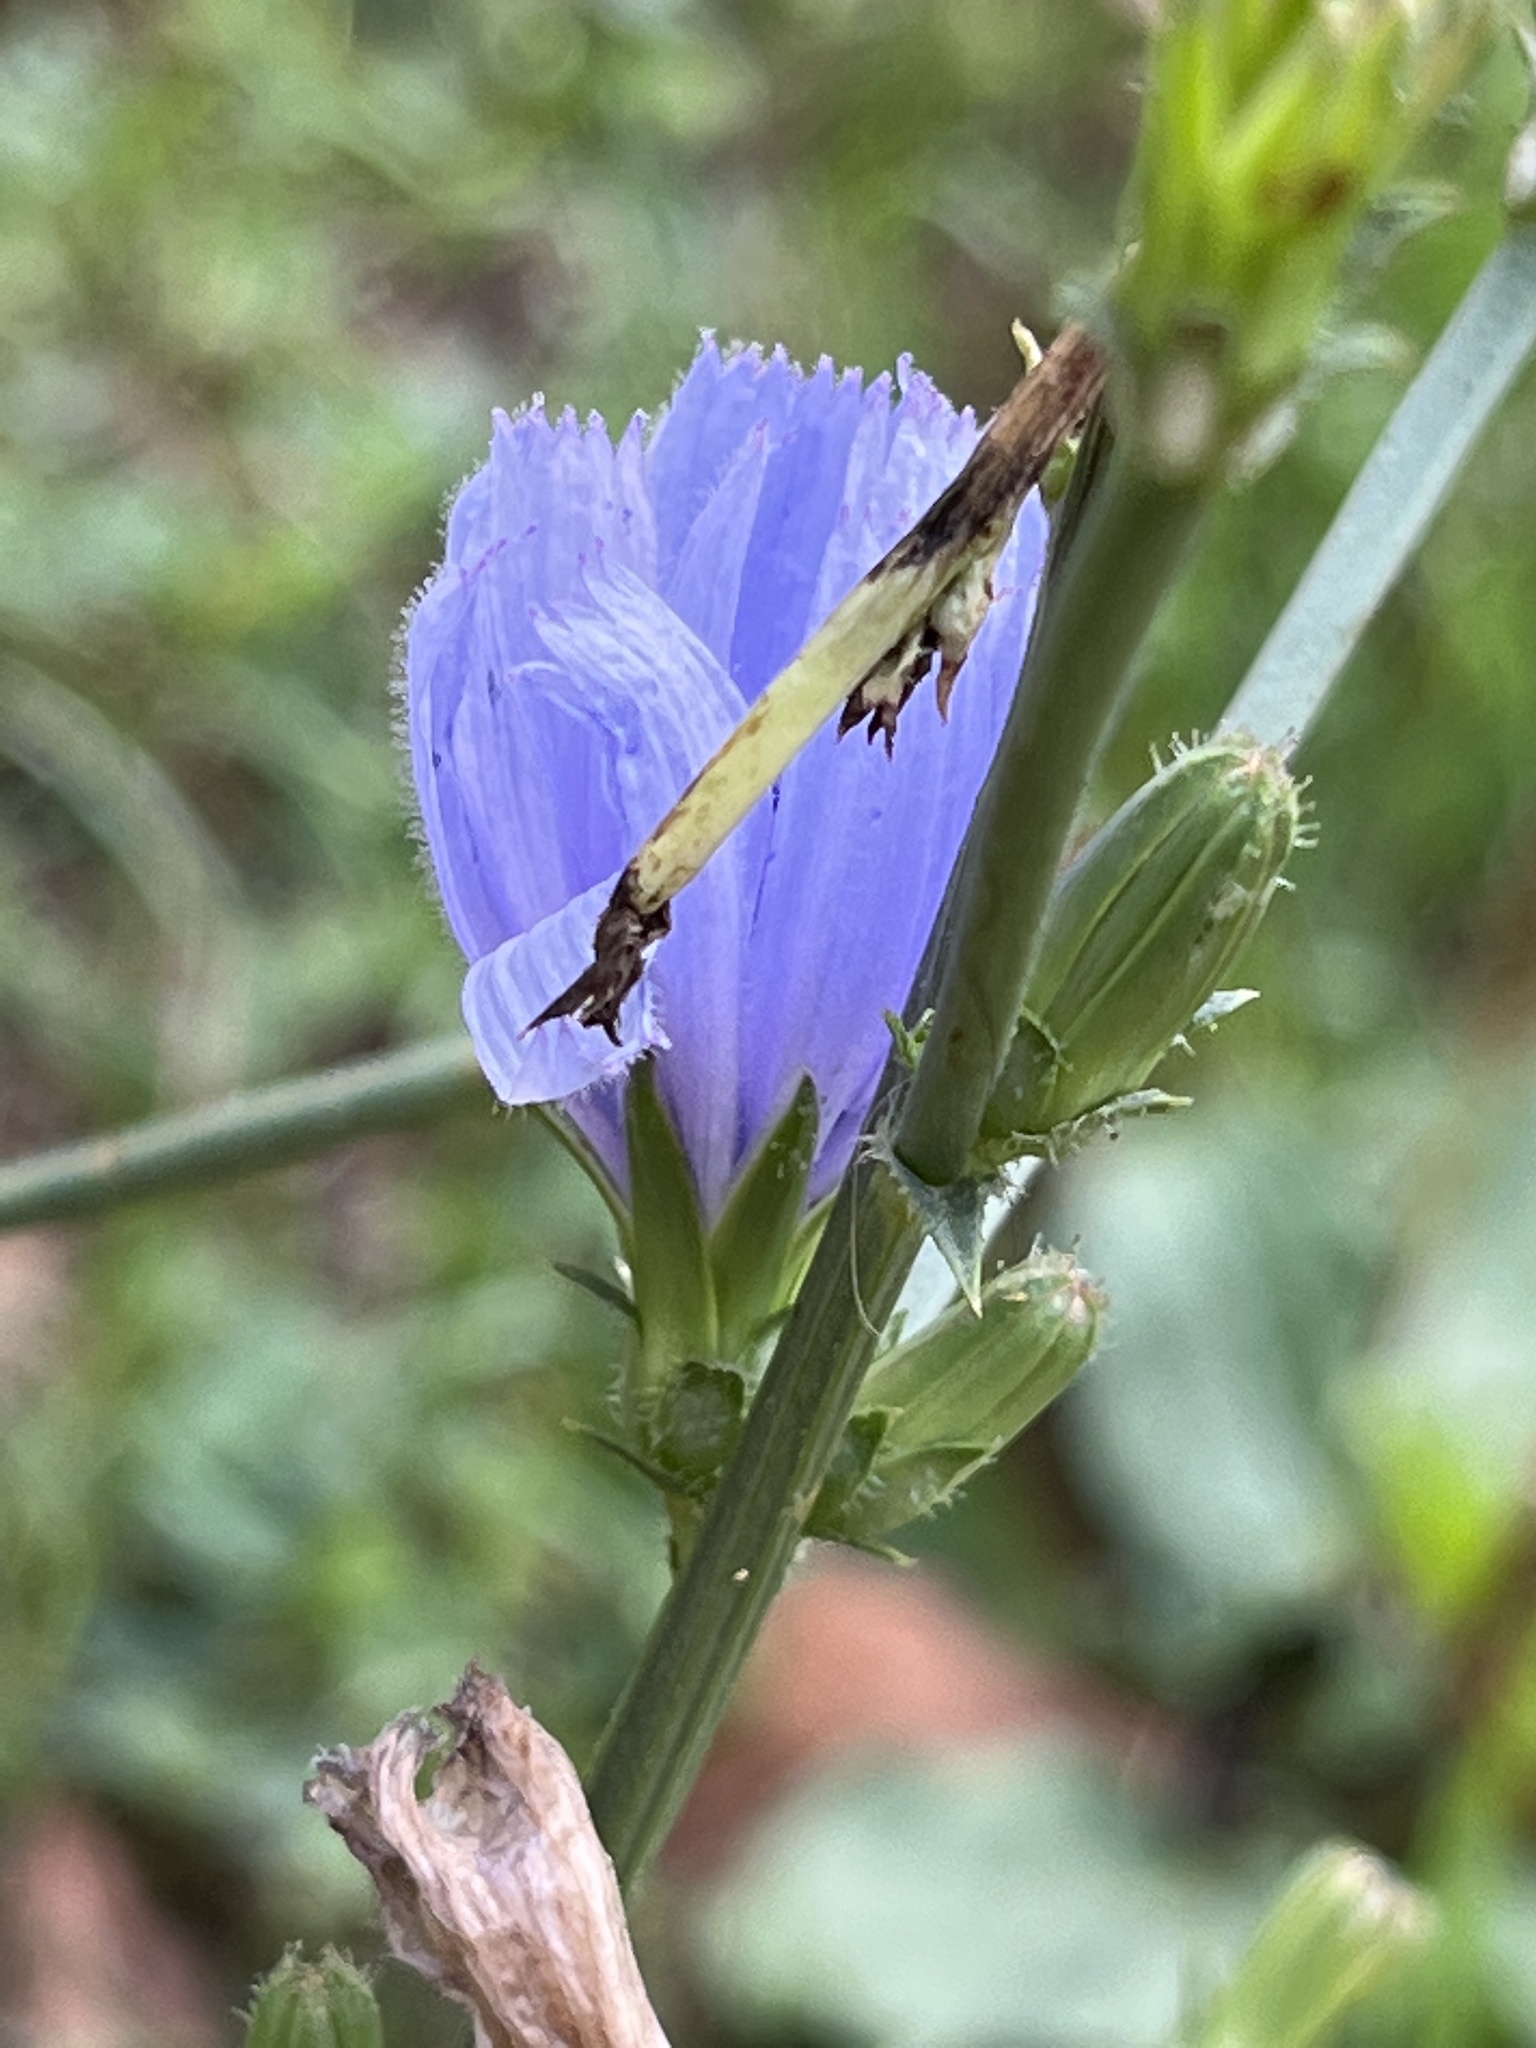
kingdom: Plantae
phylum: Tracheophyta
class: Magnoliopsida
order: Asterales
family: Asteraceae
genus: Cichorium
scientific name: Cichorium intybus
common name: Chicory
